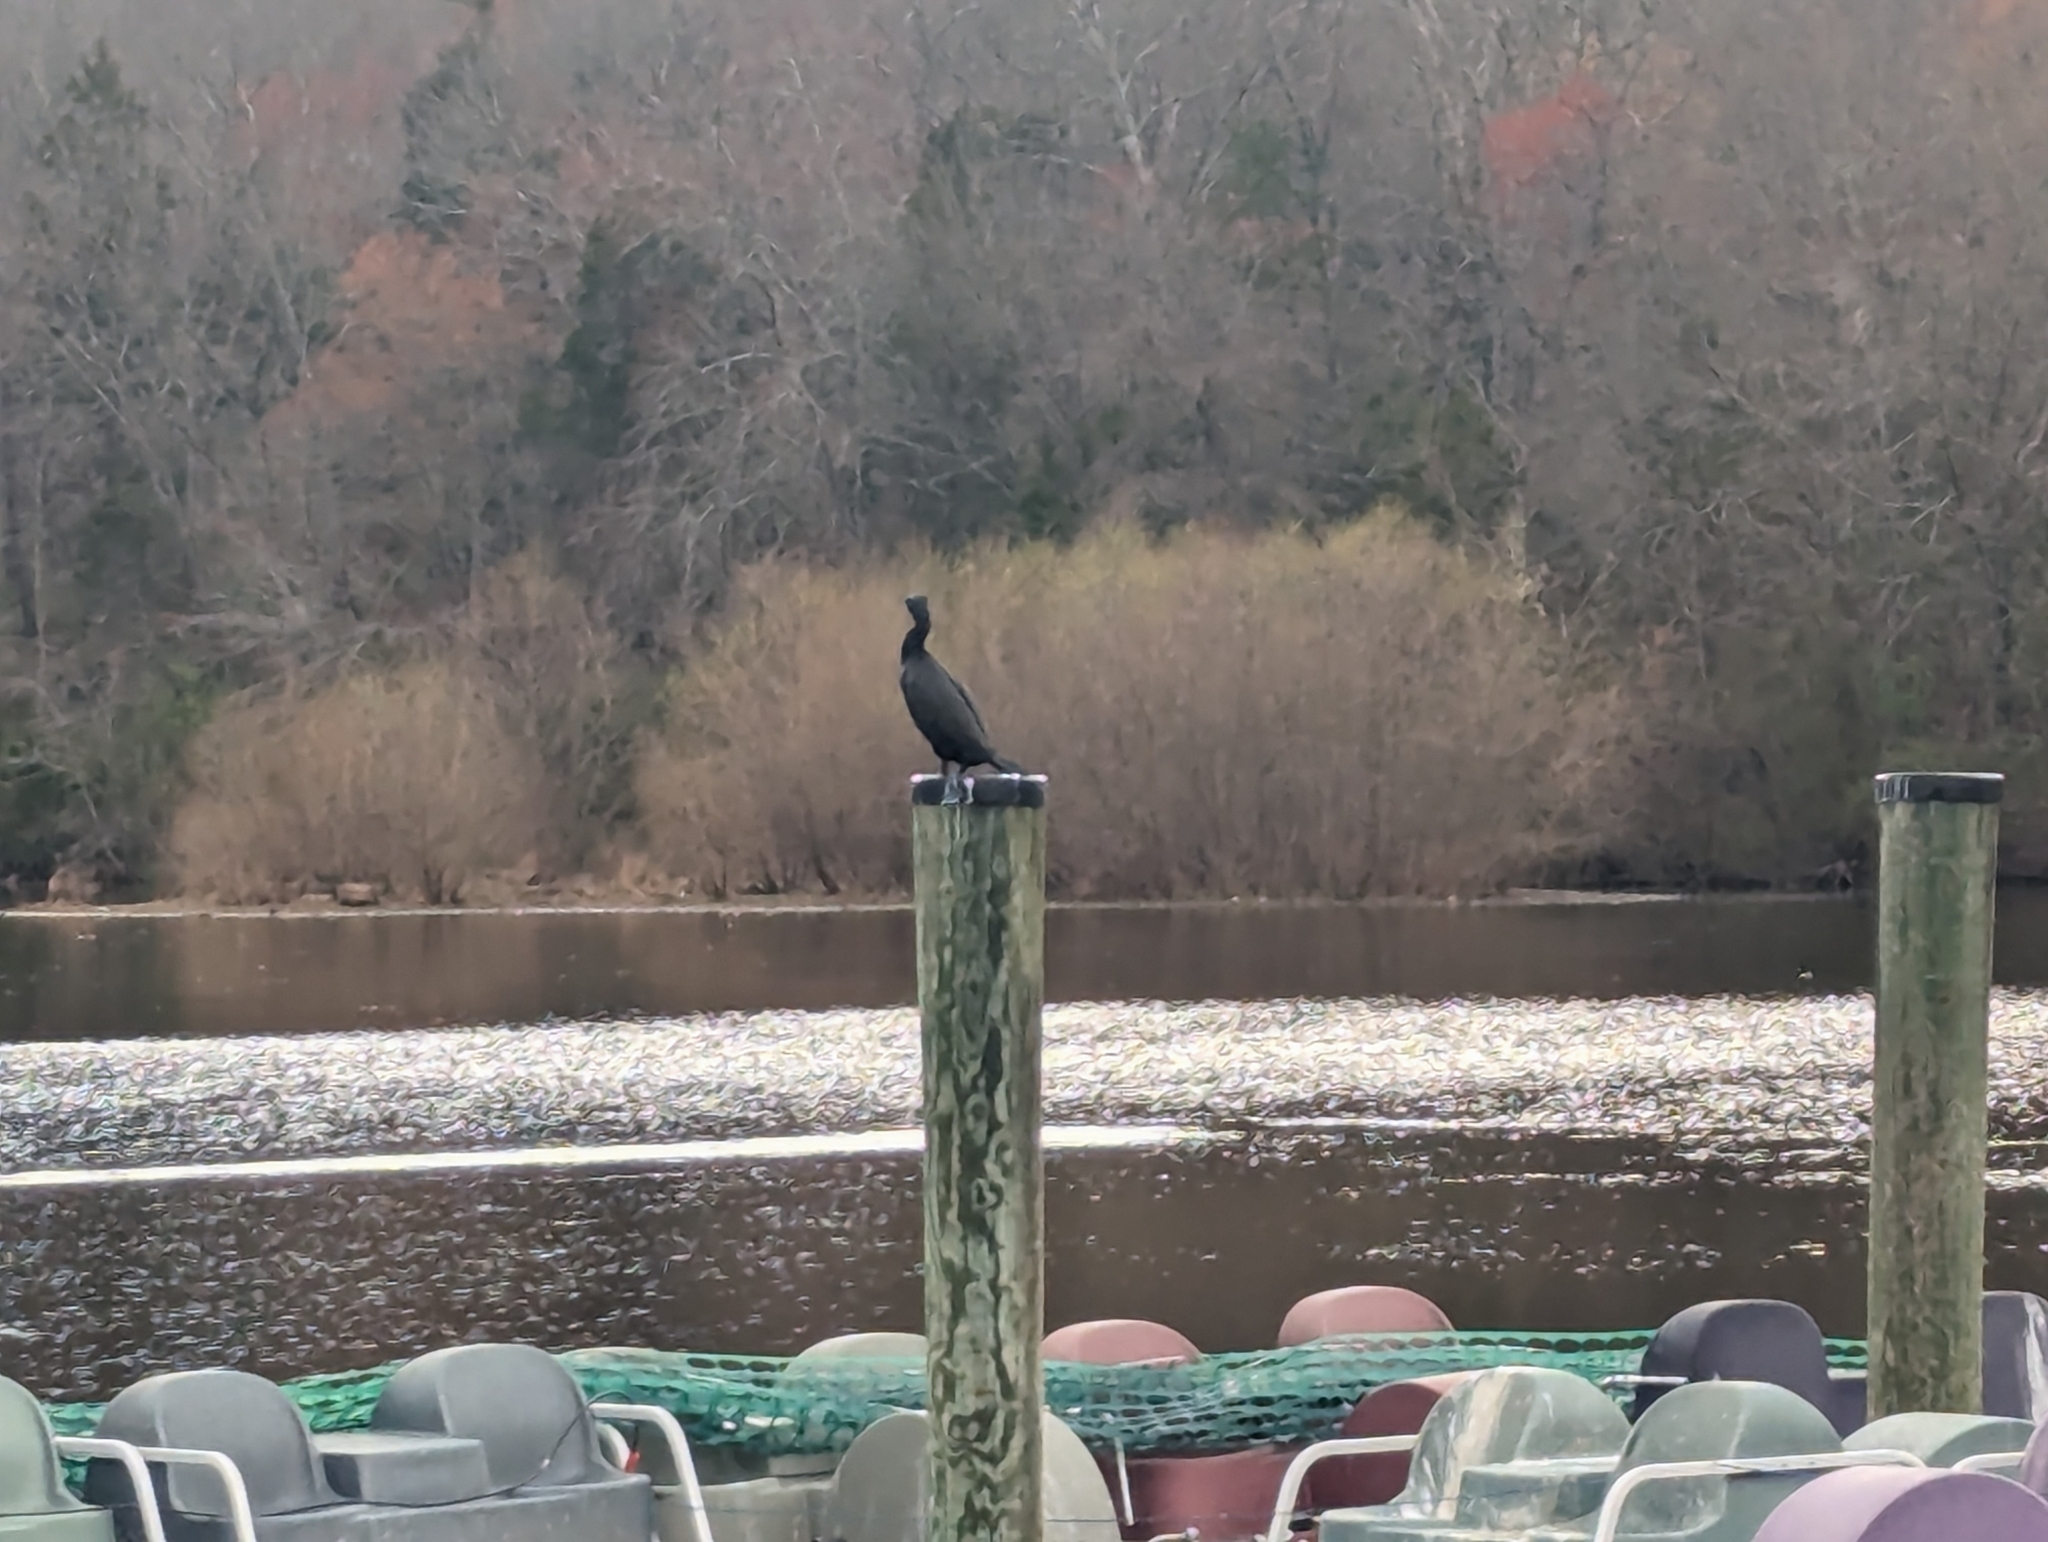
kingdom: Animalia
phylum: Chordata
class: Aves
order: Suliformes
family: Phalacrocoracidae
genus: Phalacrocorax
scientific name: Phalacrocorax auritus
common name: Double-crested cormorant
